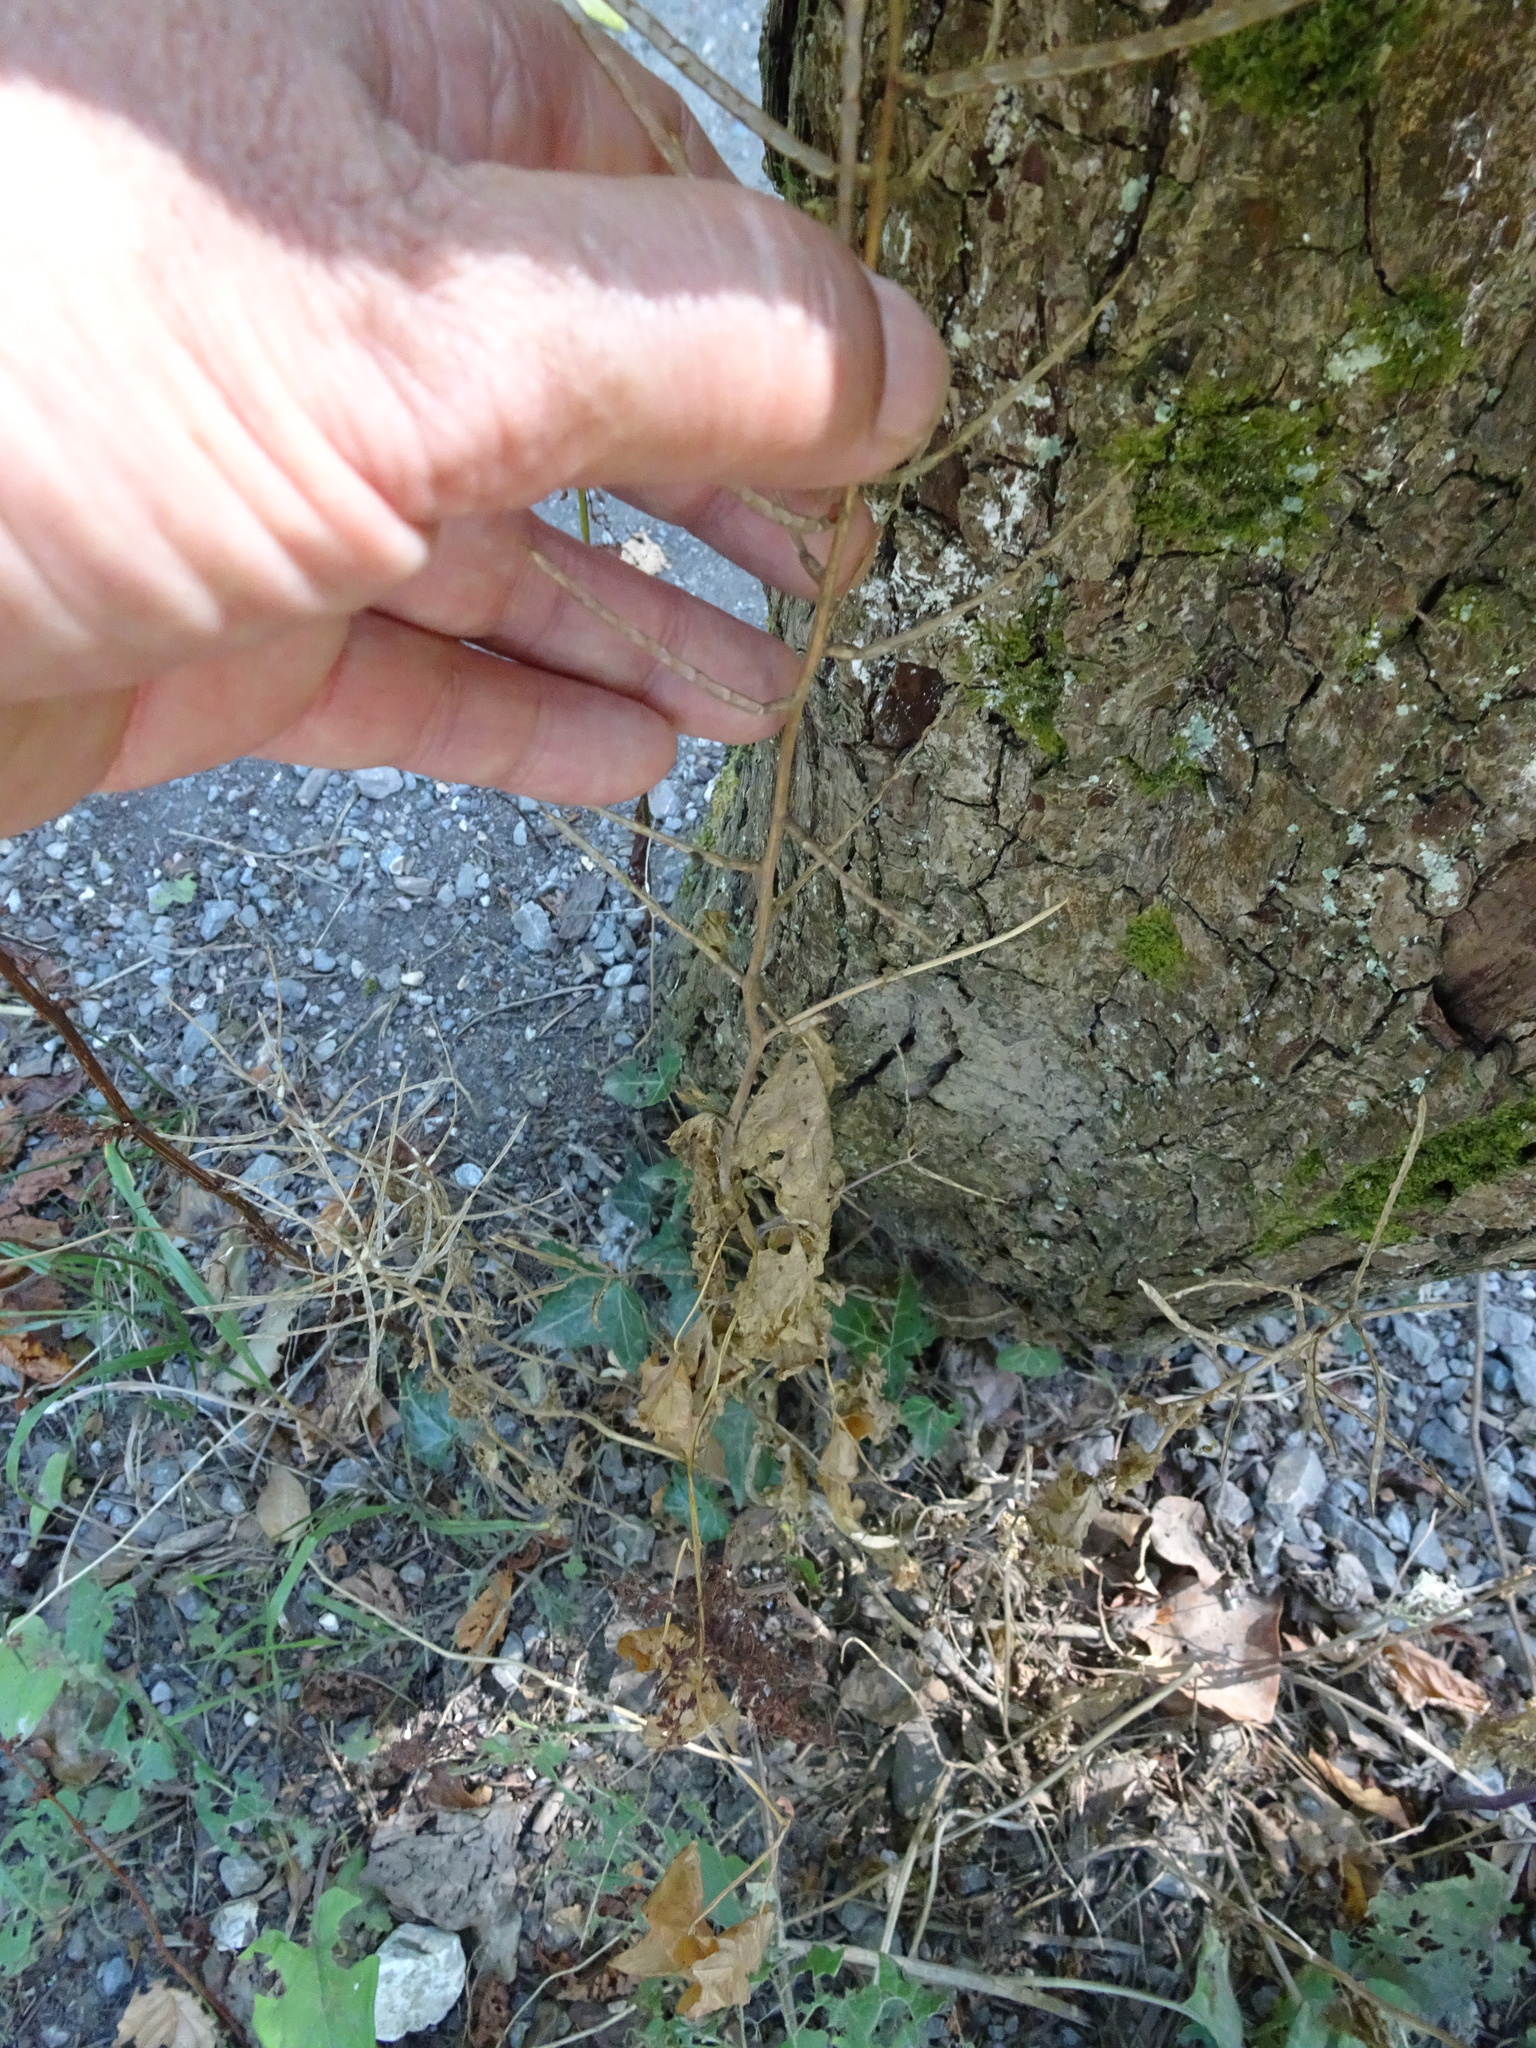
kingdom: Plantae
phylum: Tracheophyta
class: Magnoliopsida
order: Brassicales
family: Brassicaceae
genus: Alliaria
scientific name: Alliaria petiolata
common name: Garlic mustard
